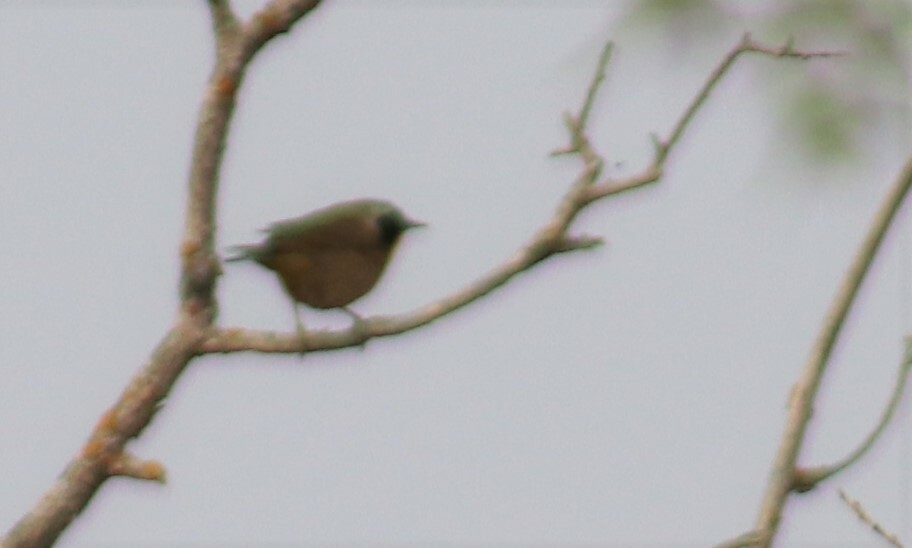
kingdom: Animalia
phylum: Chordata
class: Aves
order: Passeriformes
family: Parulidae
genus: Geothlypis
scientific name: Geothlypis trichas
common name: Common yellowthroat
